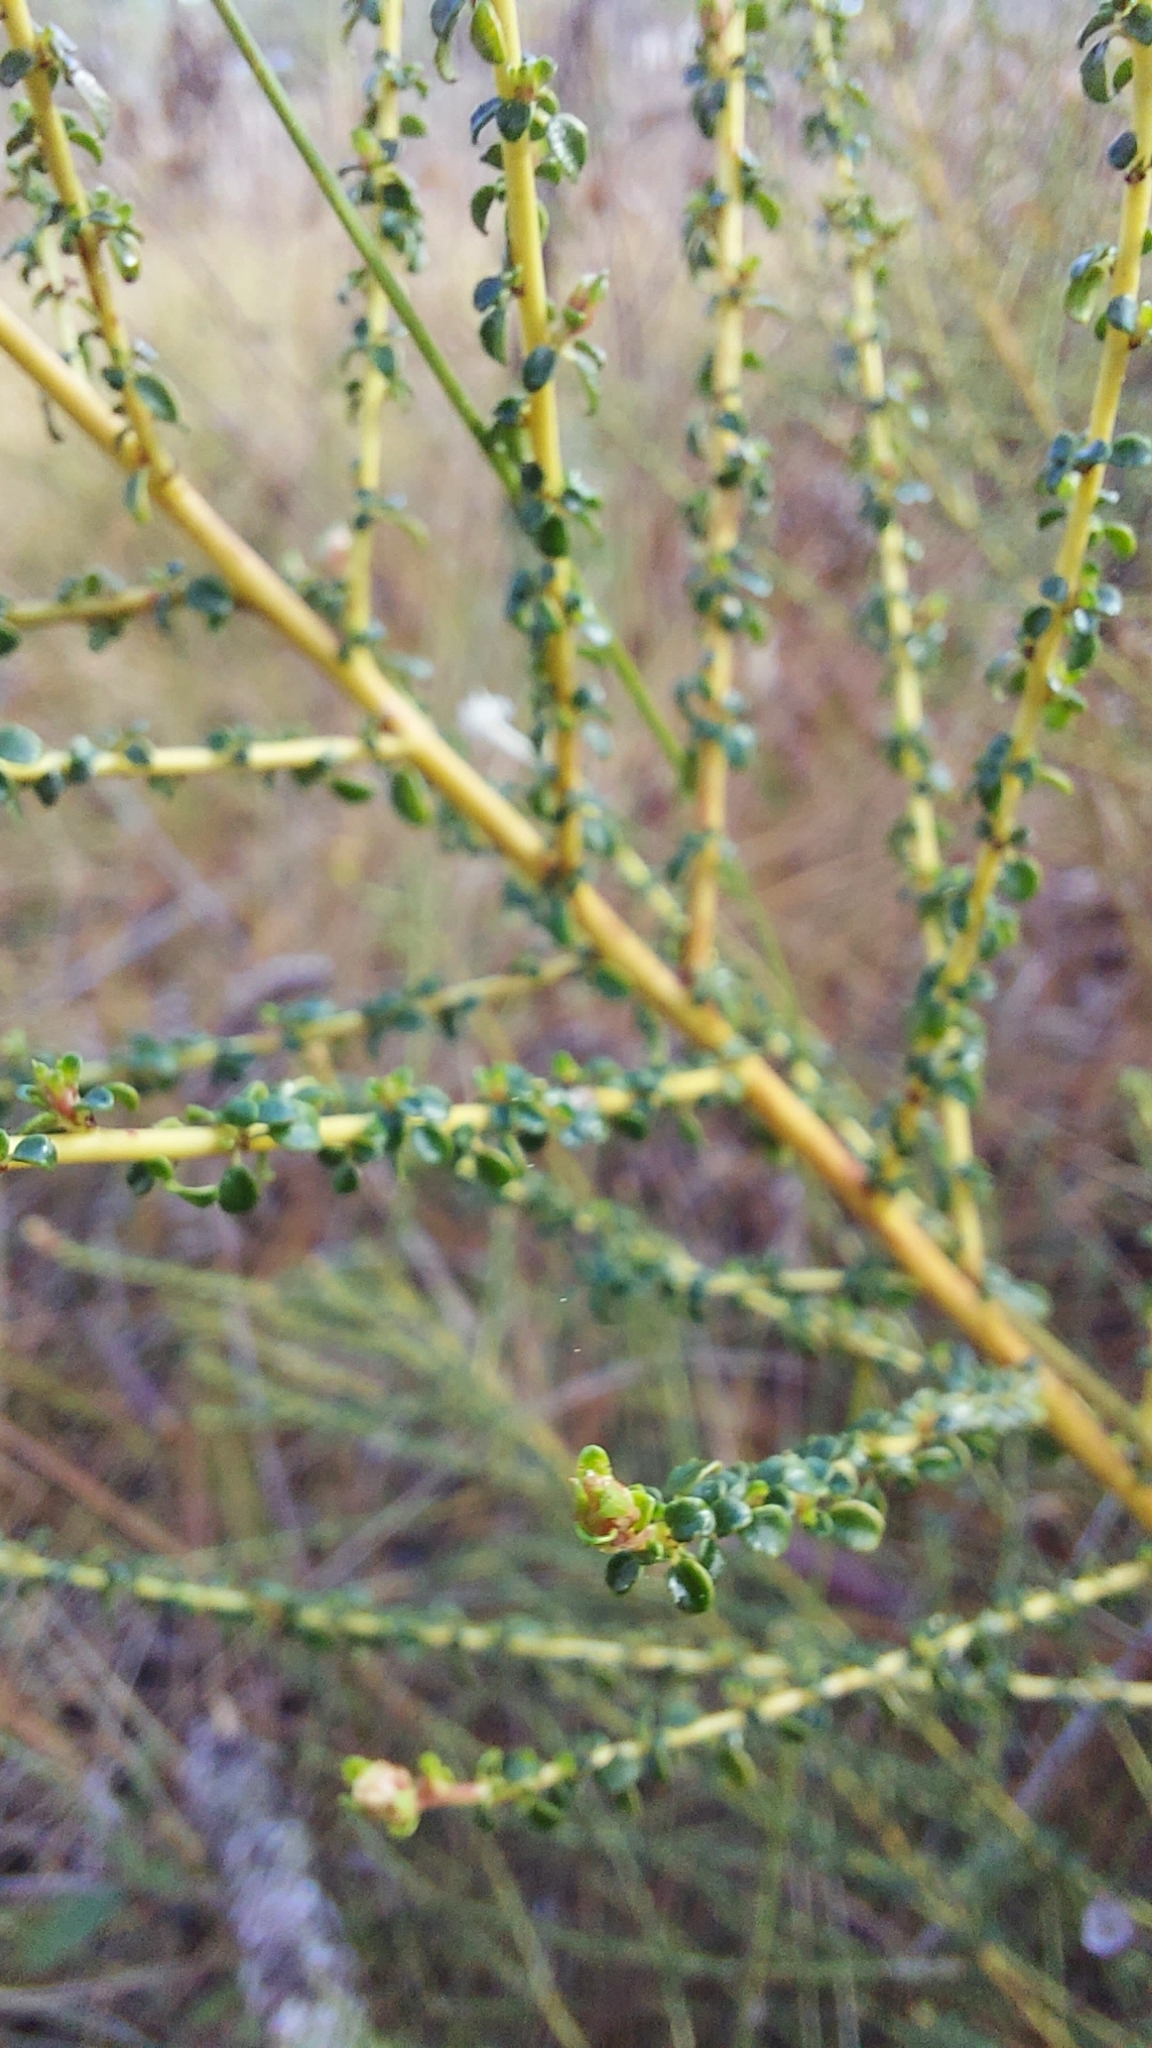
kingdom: Plantae
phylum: Tracheophyta
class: Magnoliopsida
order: Rosales
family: Rhamnaceae
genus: Ceanothus
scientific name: Ceanothus microphyllus
